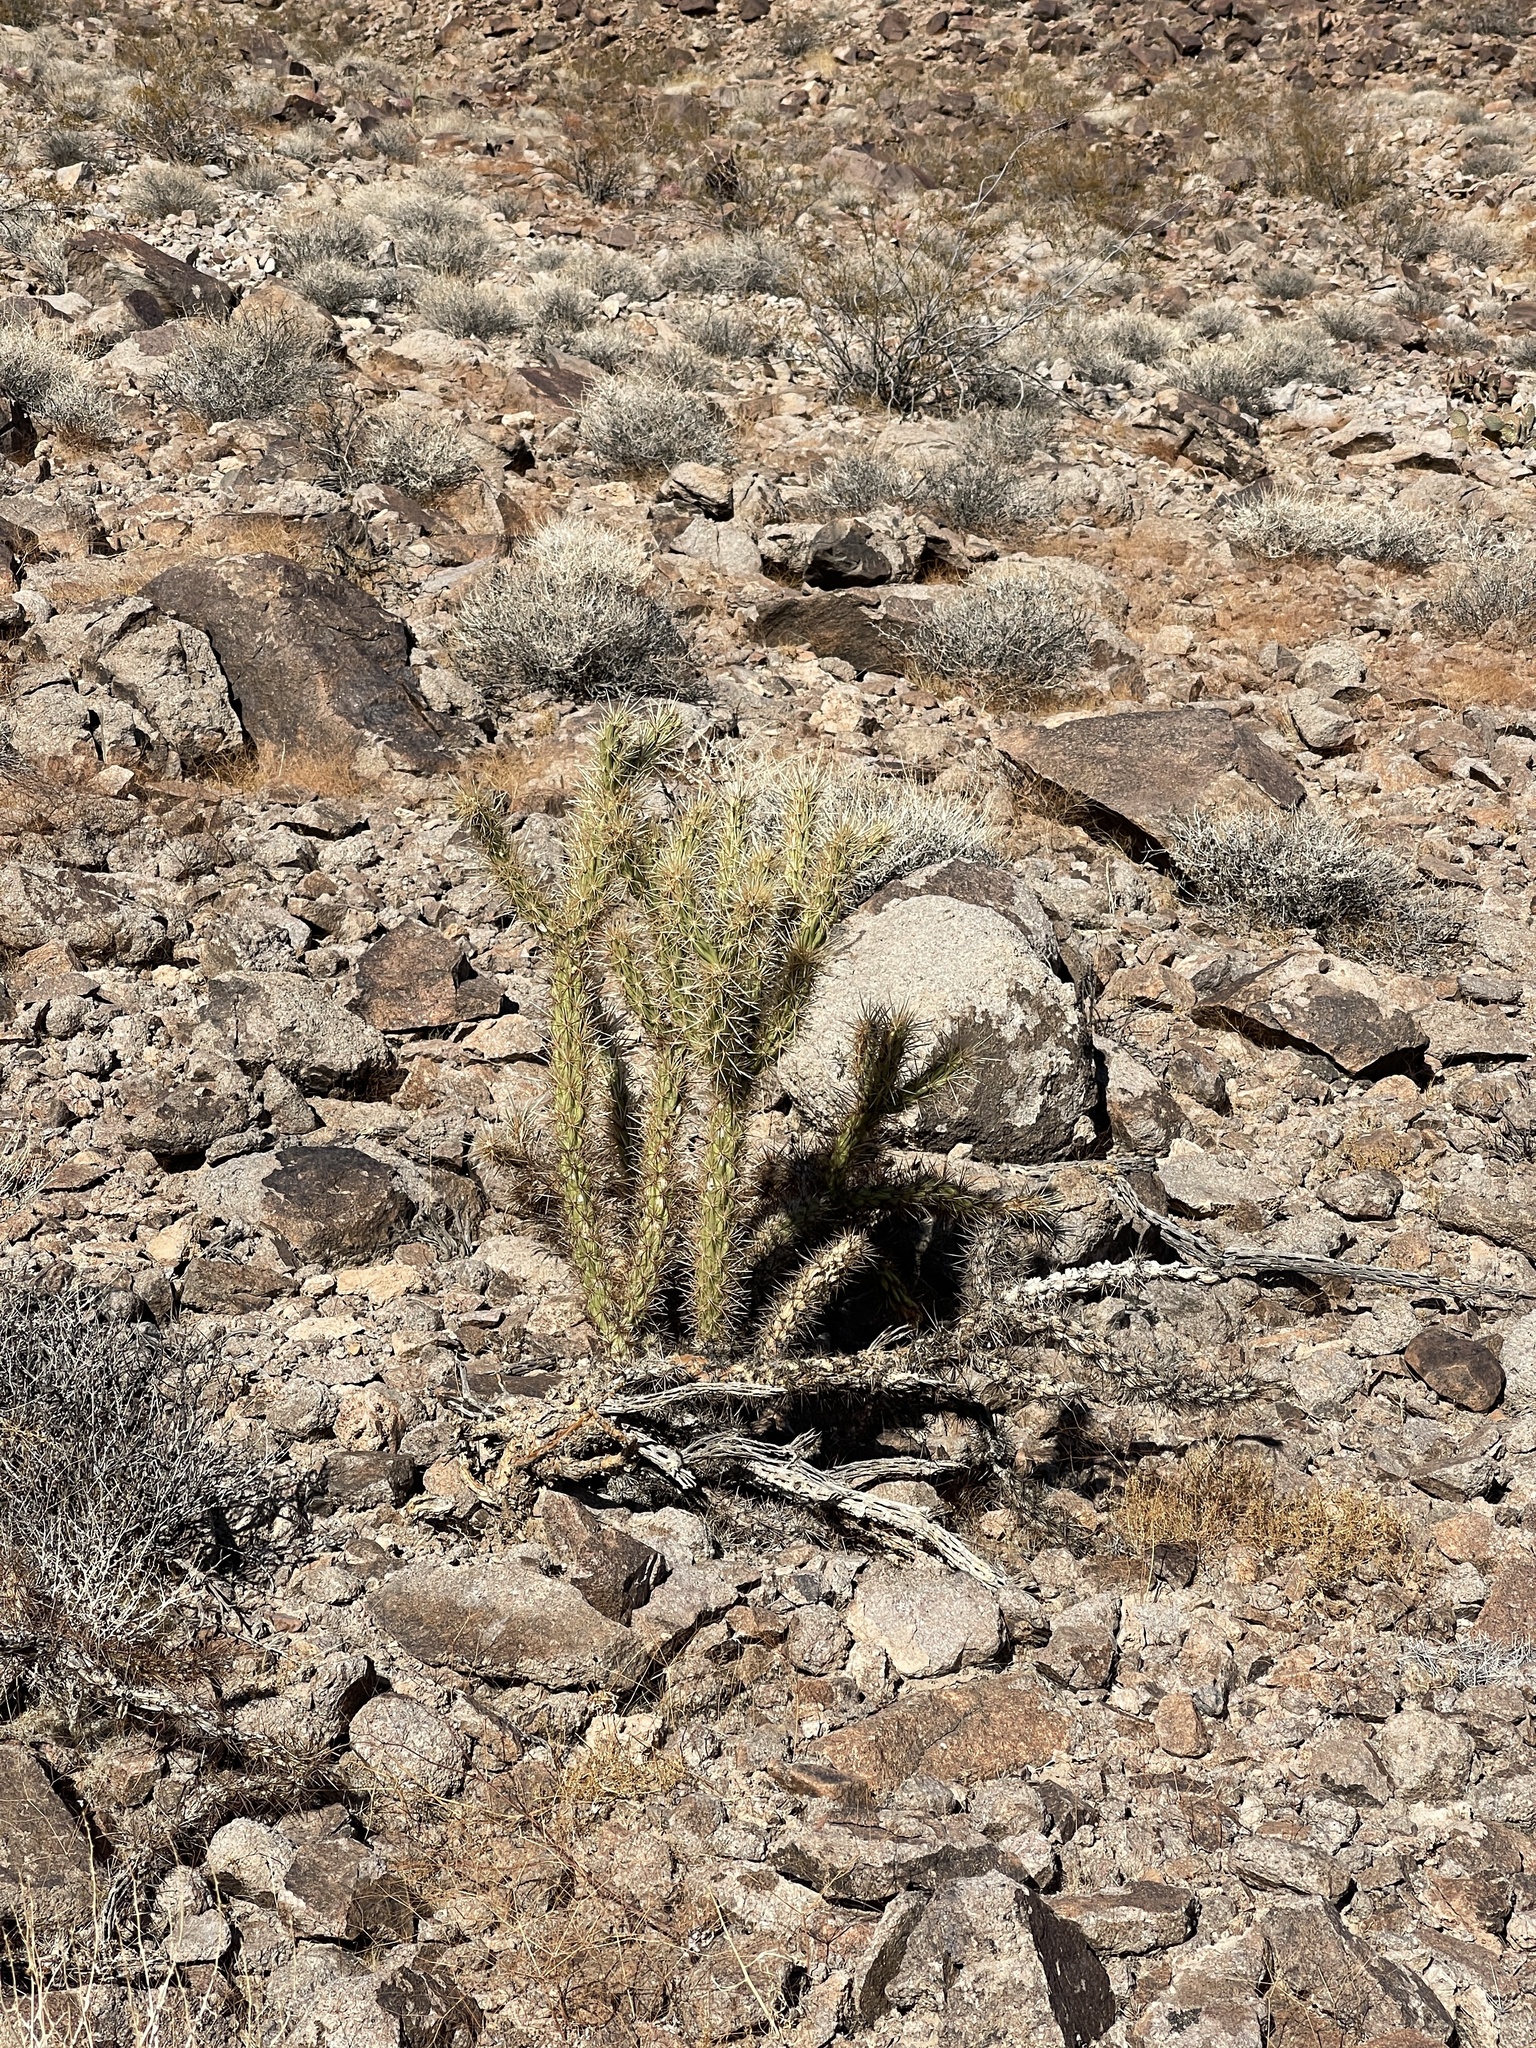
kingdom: Plantae
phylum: Tracheophyta
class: Magnoliopsida
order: Caryophyllales
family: Cactaceae
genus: Cylindropuntia
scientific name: Cylindropuntia acanthocarpa
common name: Buckhorn cholla
